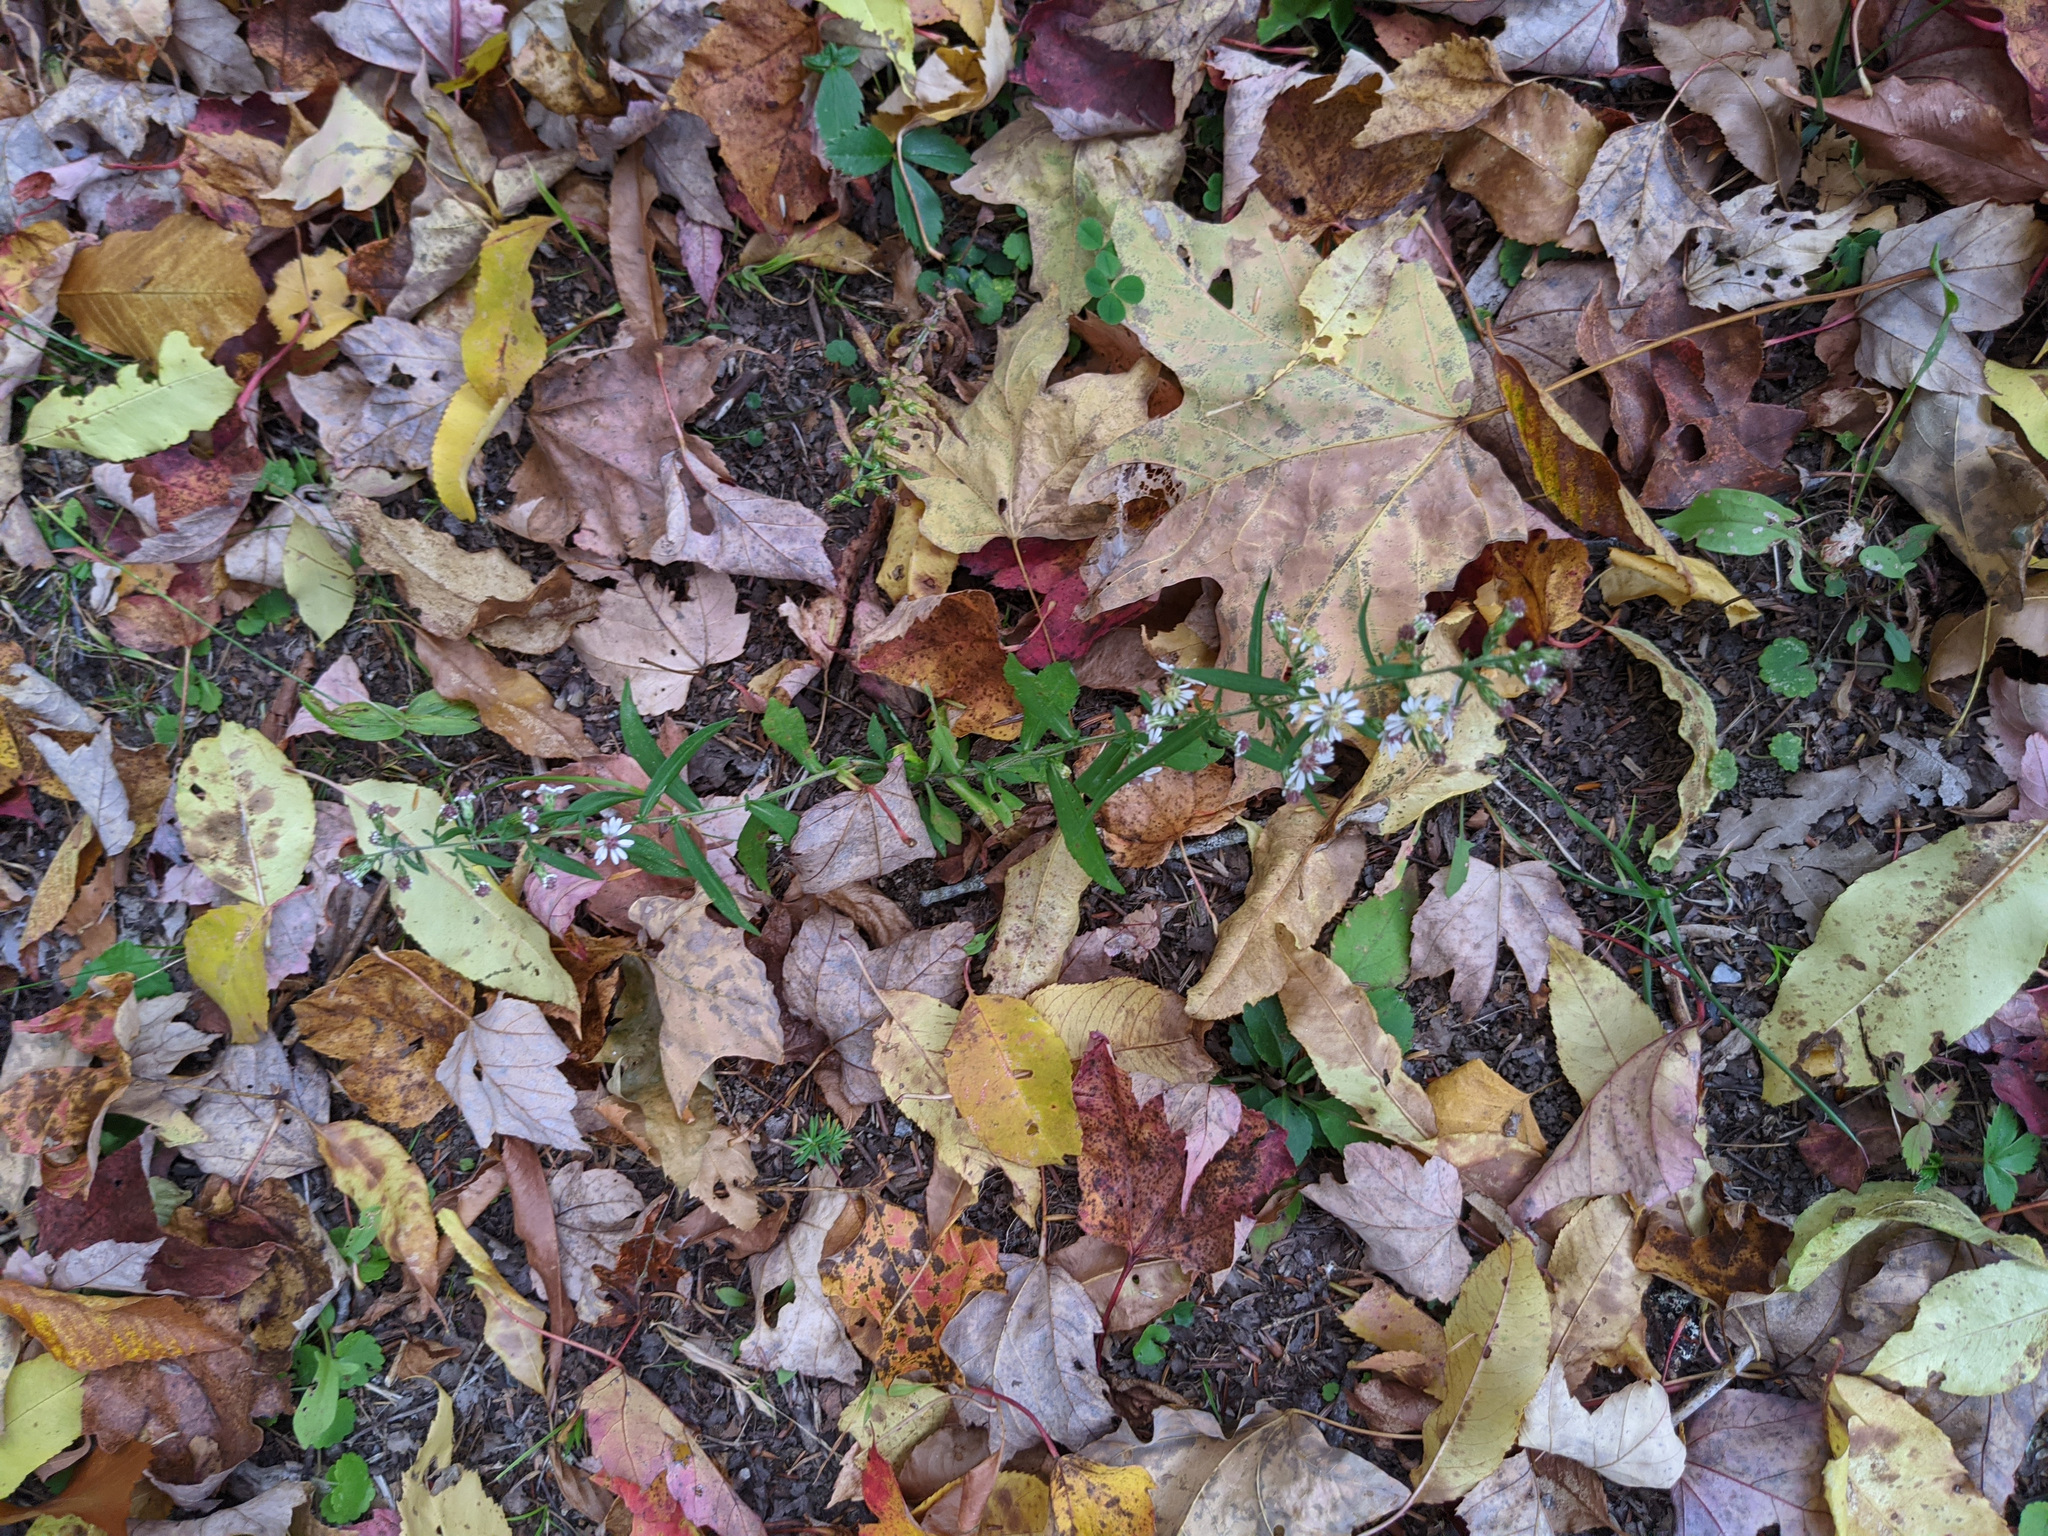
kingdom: Plantae
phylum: Tracheophyta
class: Magnoliopsida
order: Asterales
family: Asteraceae
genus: Symphyotrichum
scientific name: Symphyotrichum lateriflorum
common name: Calico aster
